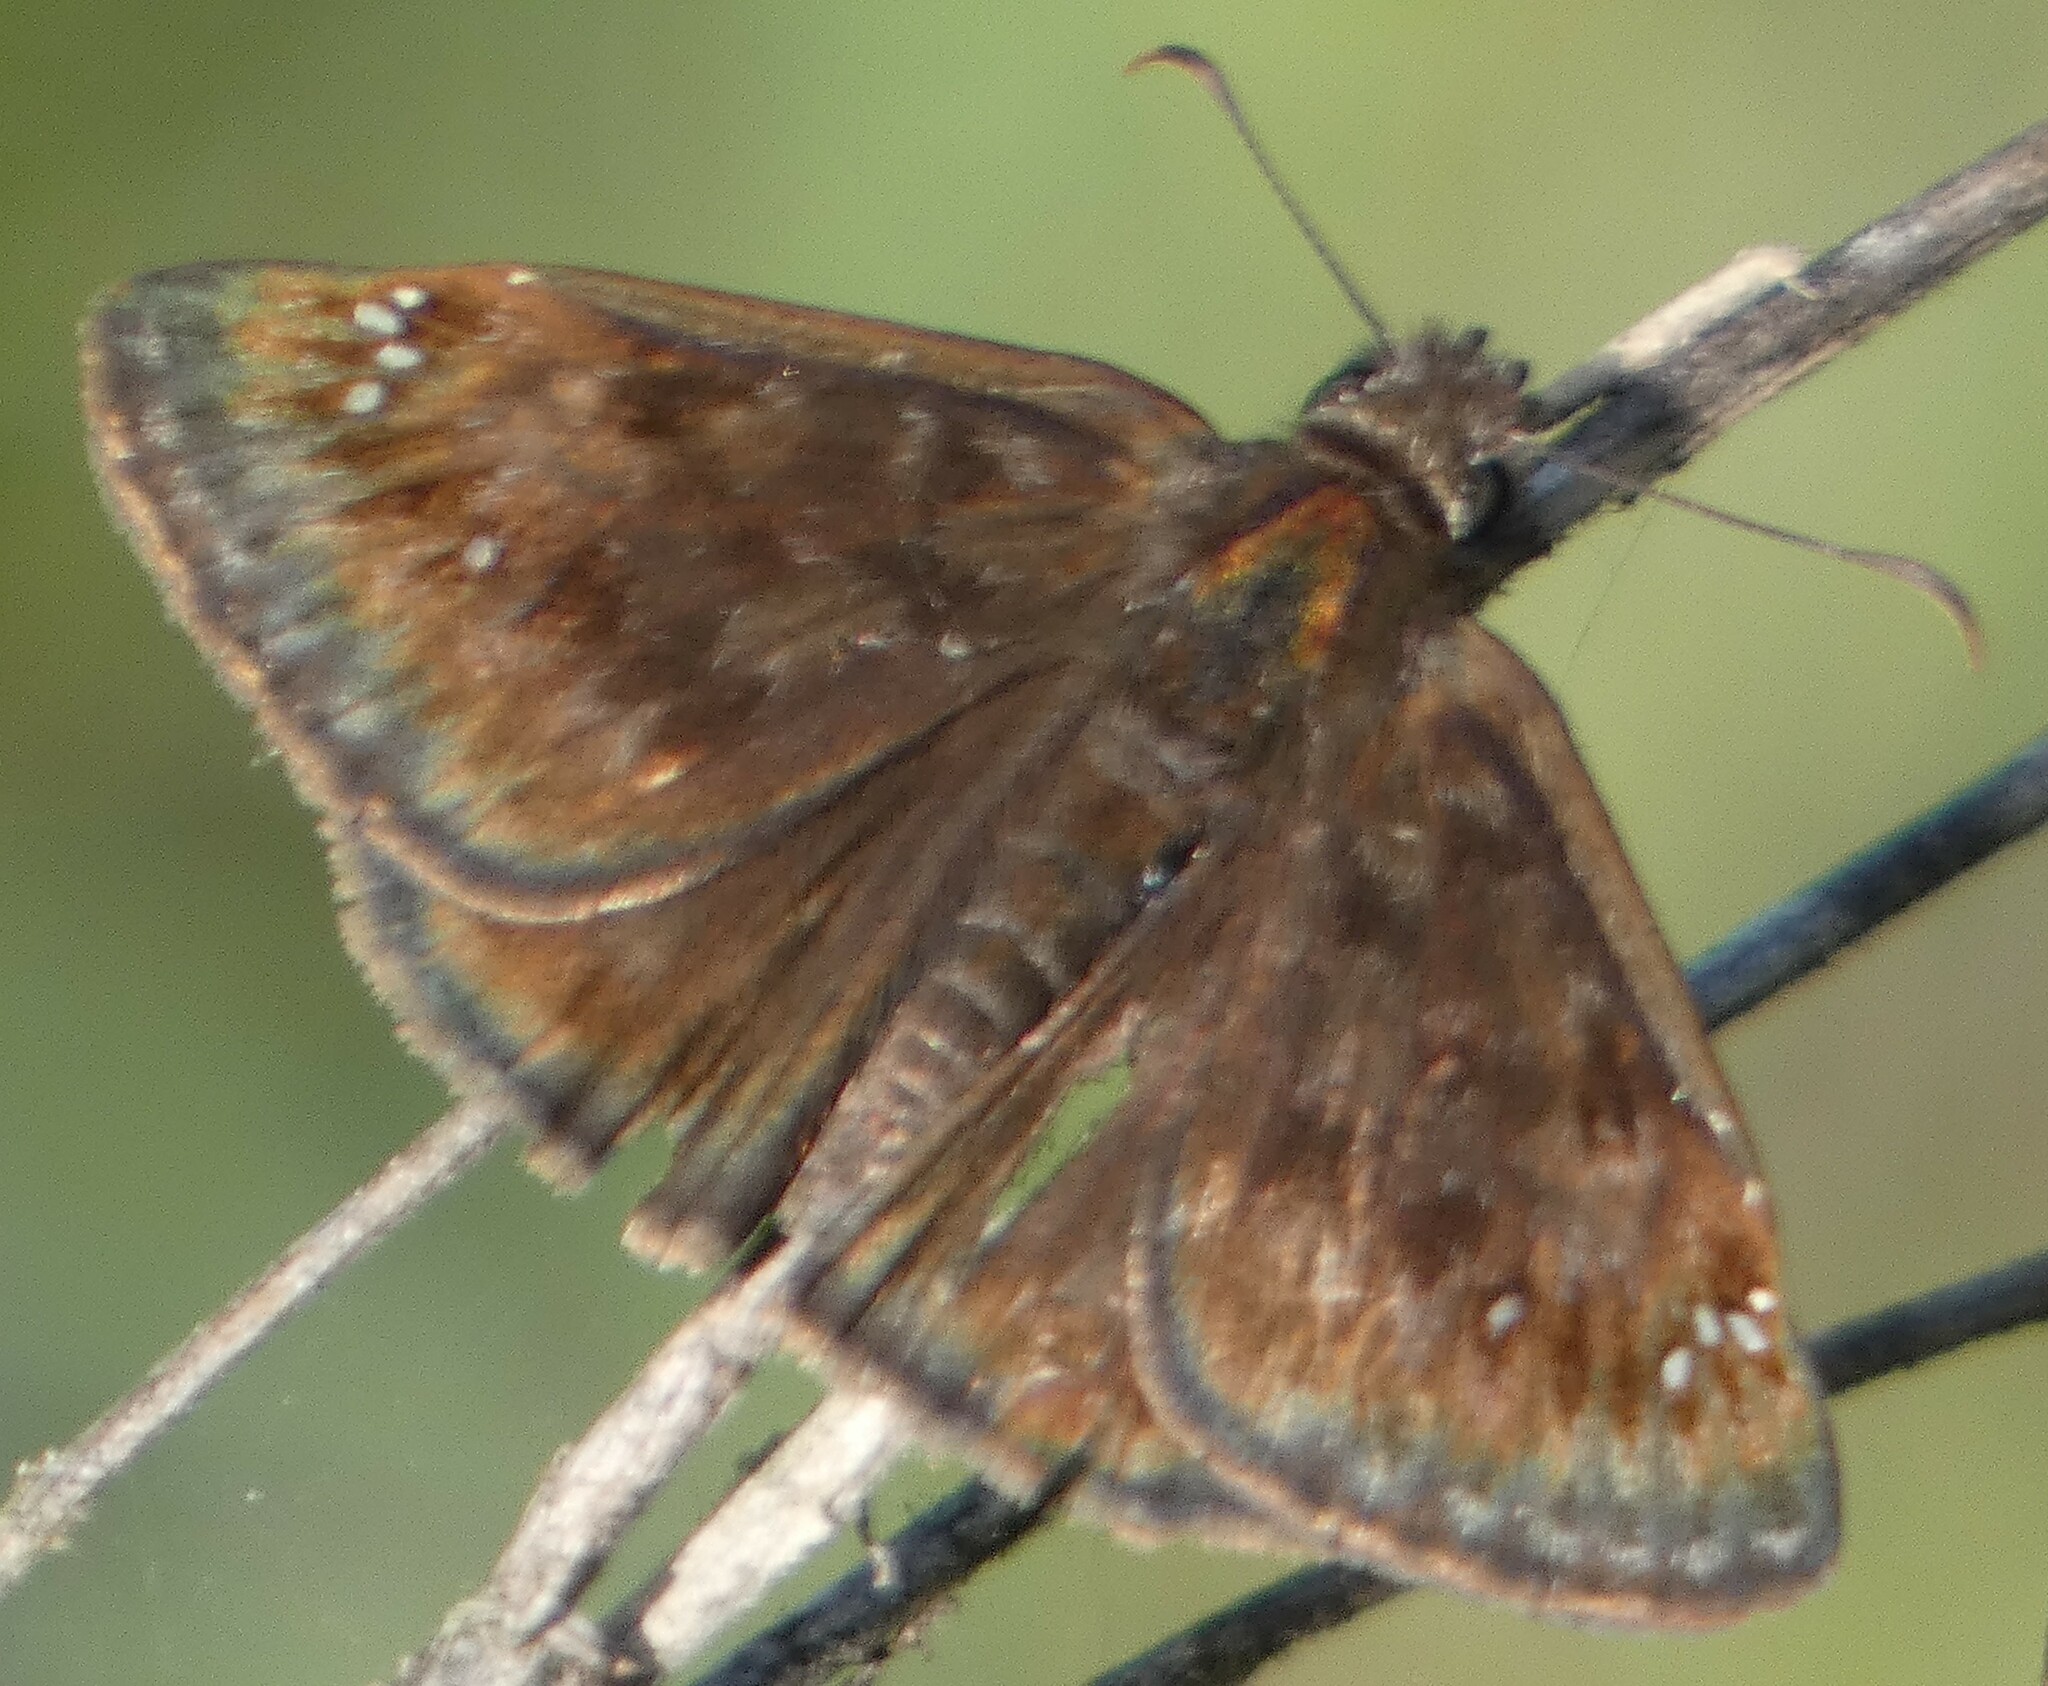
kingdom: Animalia
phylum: Arthropoda
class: Insecta
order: Lepidoptera
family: Hesperiidae
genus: Erynnis
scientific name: Erynnis horatius
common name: Horace's duskywing
